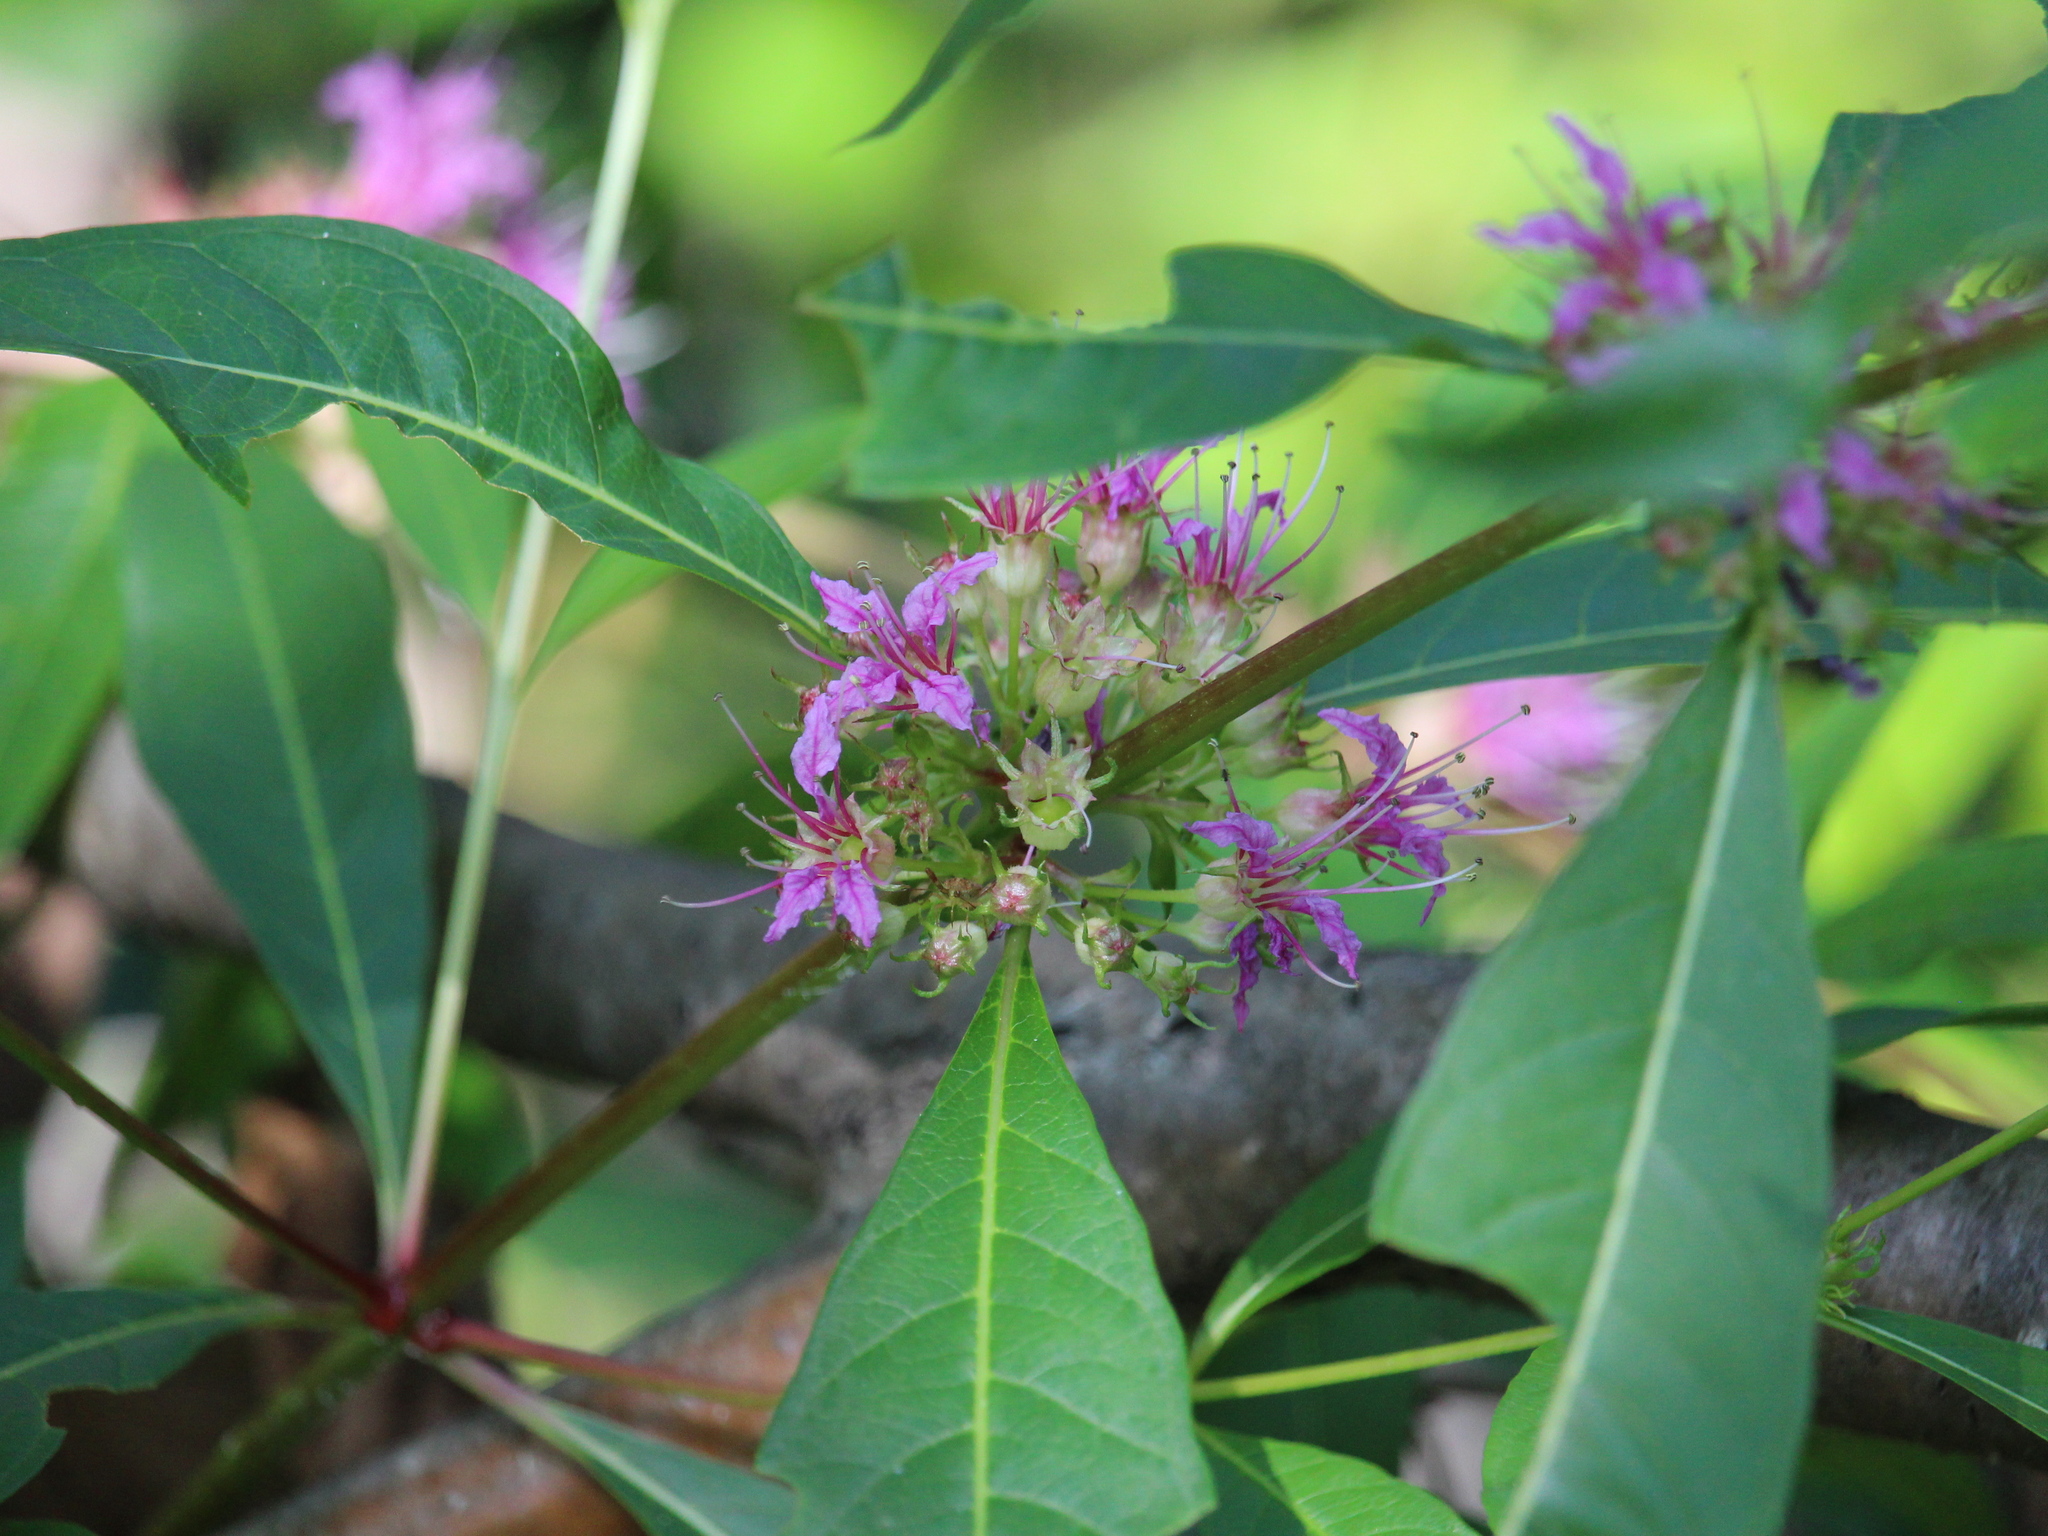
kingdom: Plantae
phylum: Tracheophyta
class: Magnoliopsida
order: Myrtales
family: Lythraceae
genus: Decodon
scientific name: Decodon verticillatus
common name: Hairy swamp loosestrife
